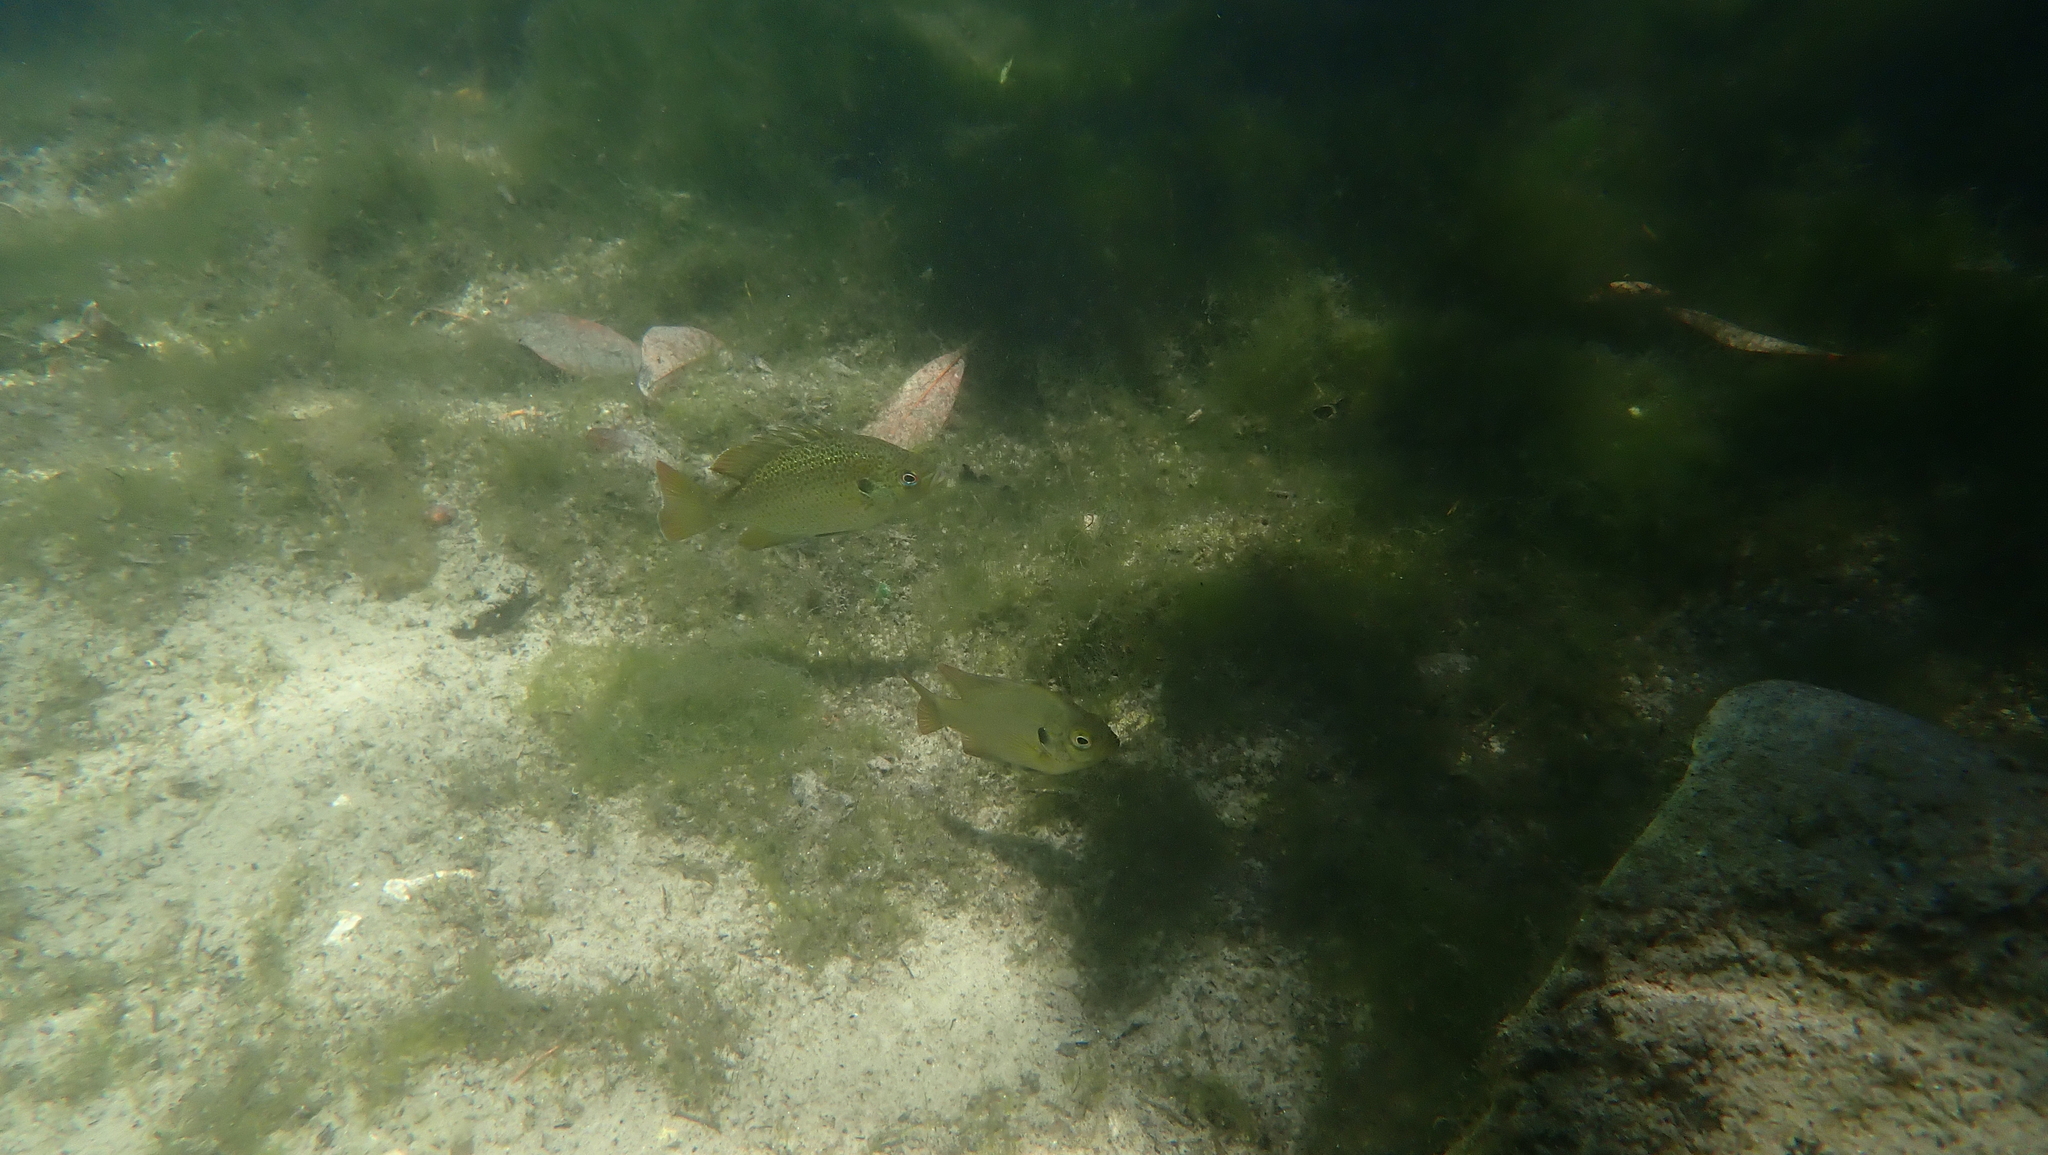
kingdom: Animalia
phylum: Chordata
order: Perciformes
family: Centrarchidae
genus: Lepomis
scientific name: Lepomis punctatus
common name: Spotted sunfish
